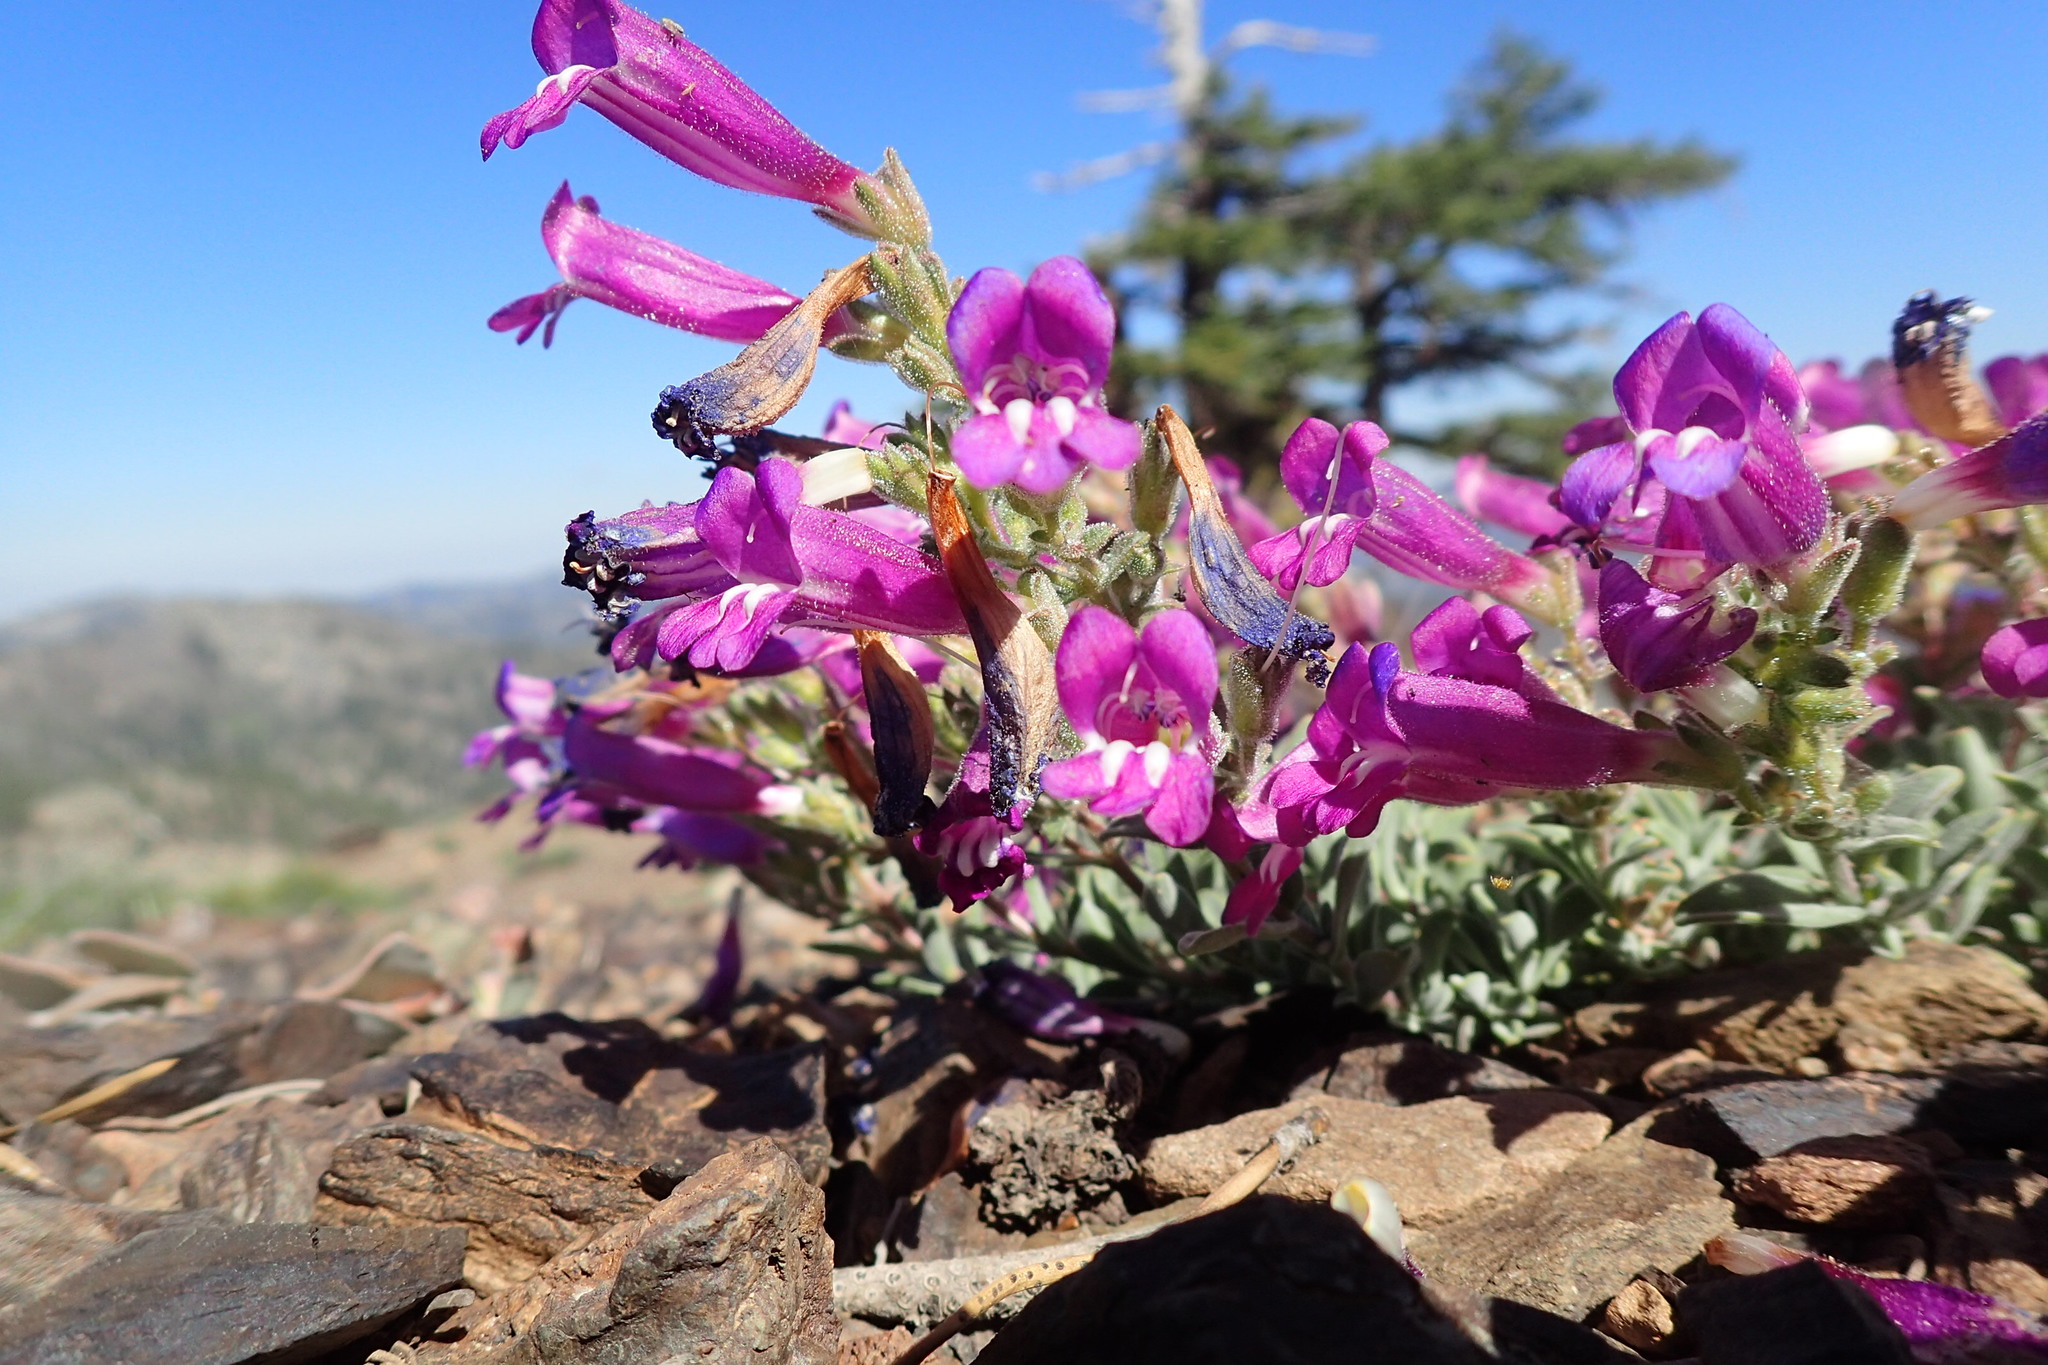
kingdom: Plantae
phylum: Tracheophyta
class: Magnoliopsida
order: Lamiales
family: Plantaginaceae
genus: Penstemon
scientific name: Penstemon purpusii
